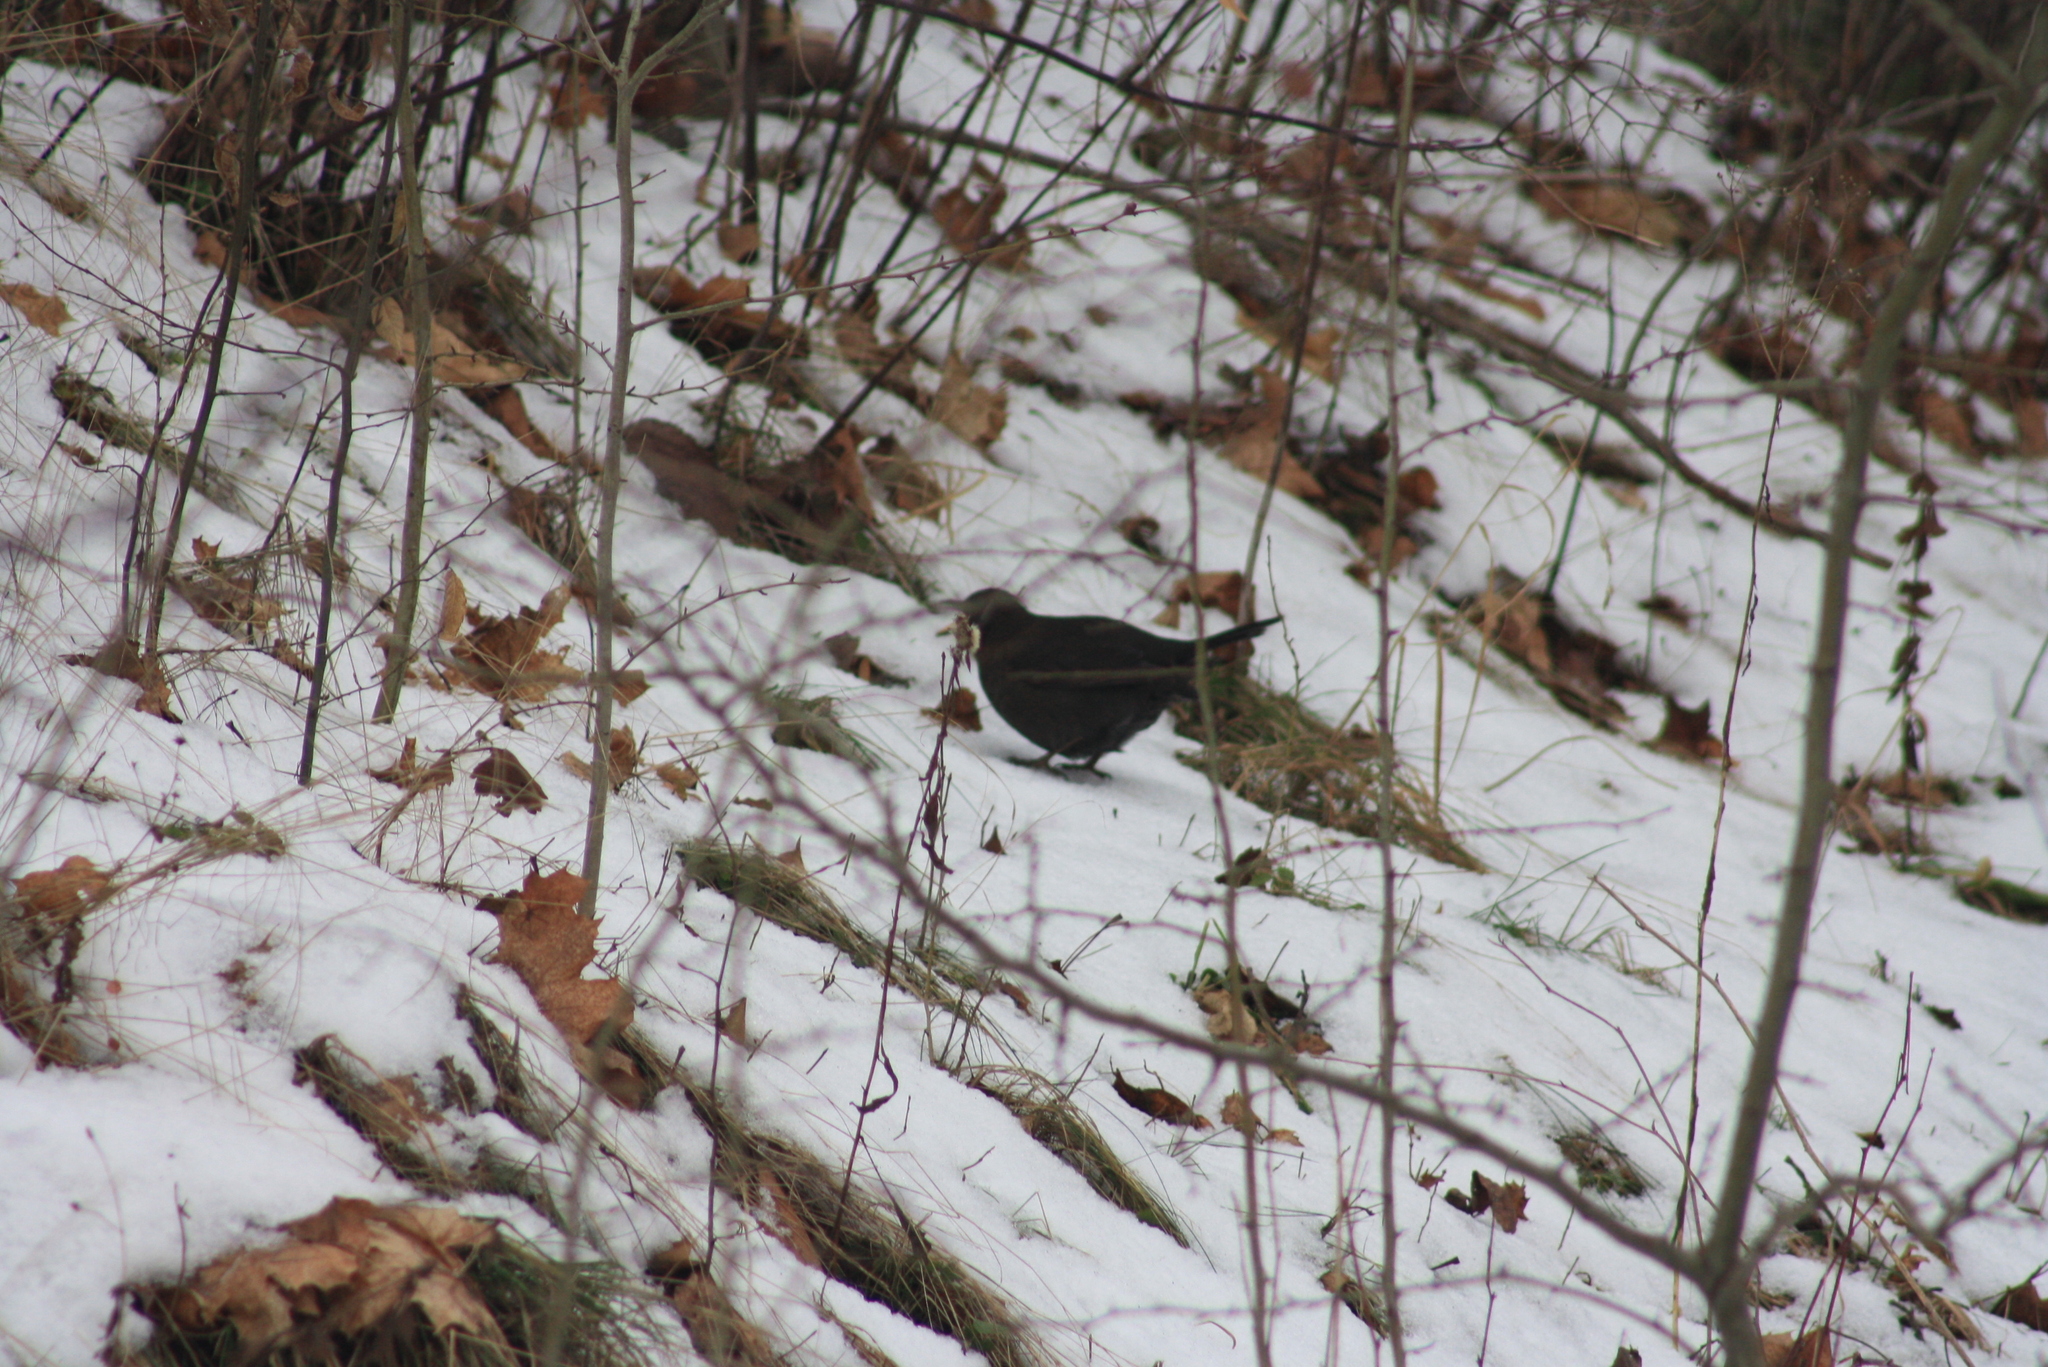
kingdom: Animalia
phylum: Chordata
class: Aves
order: Passeriformes
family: Turdidae
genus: Turdus
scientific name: Turdus merula
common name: Common blackbird
